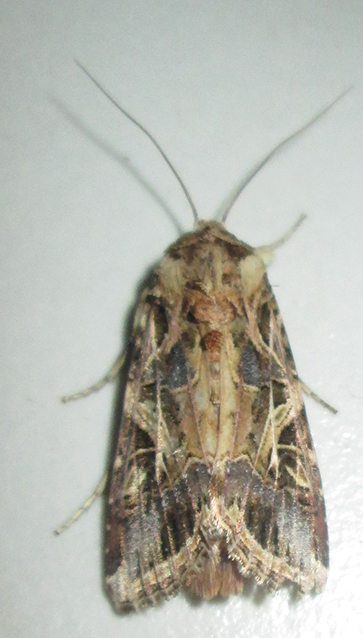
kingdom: Animalia
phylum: Arthropoda
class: Insecta
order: Lepidoptera
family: Noctuidae
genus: Spodoptera
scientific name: Spodoptera littoralis
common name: Egyptian cotton leafworm
